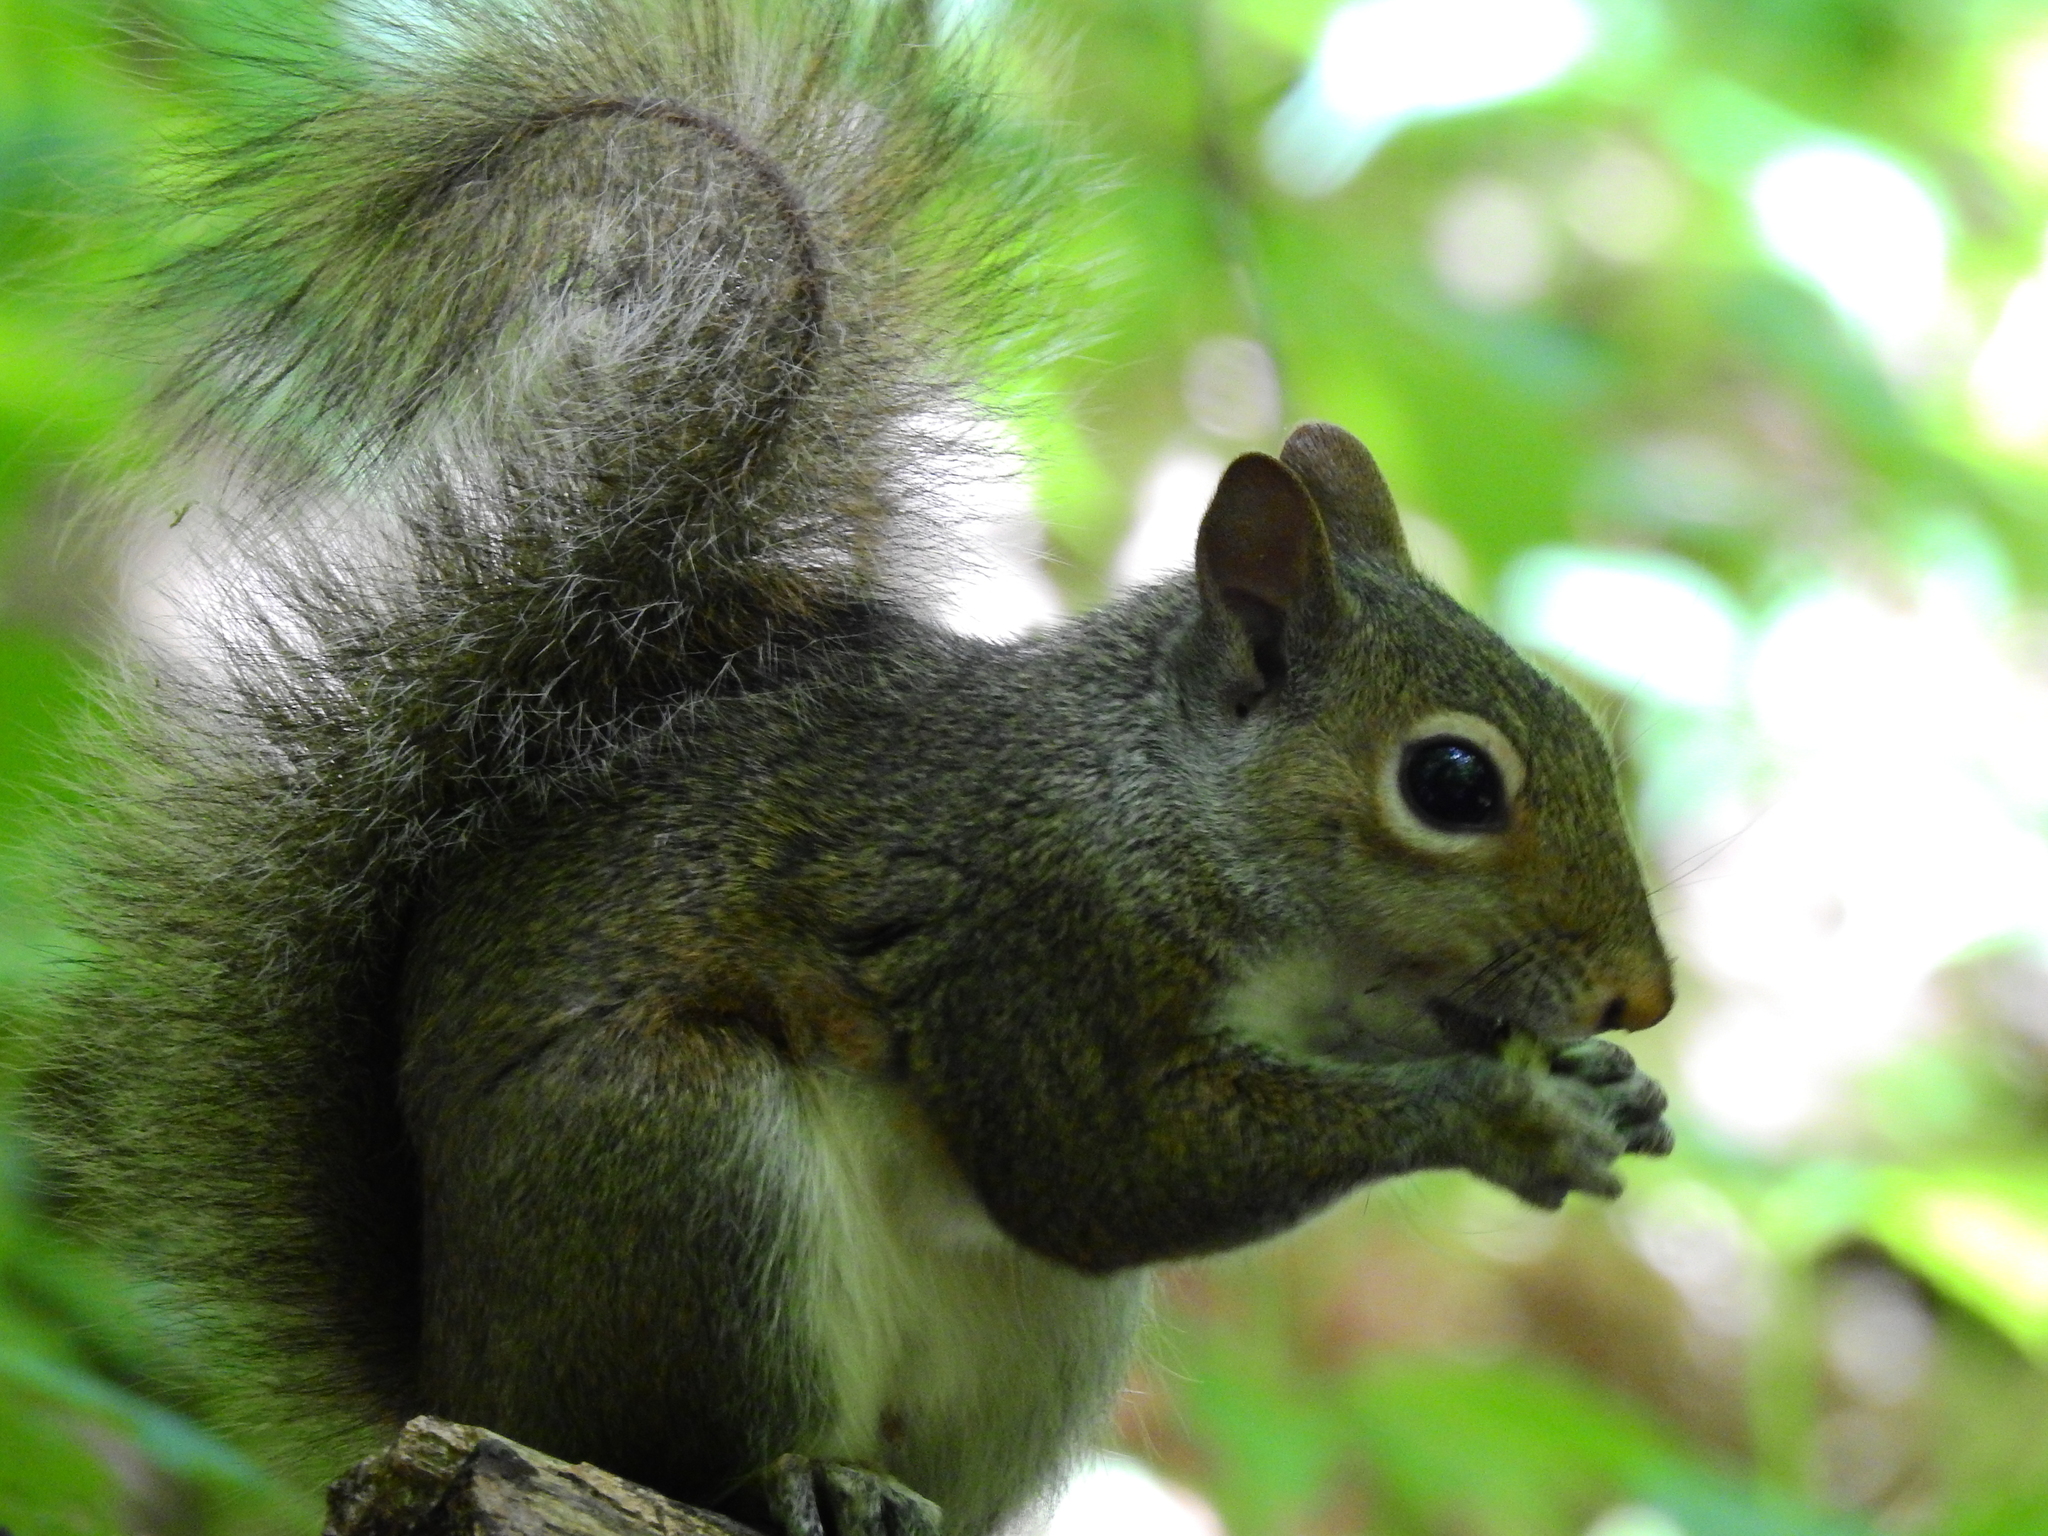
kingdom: Animalia
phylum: Chordata
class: Mammalia
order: Rodentia
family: Sciuridae
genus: Sciurus
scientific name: Sciurus carolinensis
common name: Eastern gray squirrel
